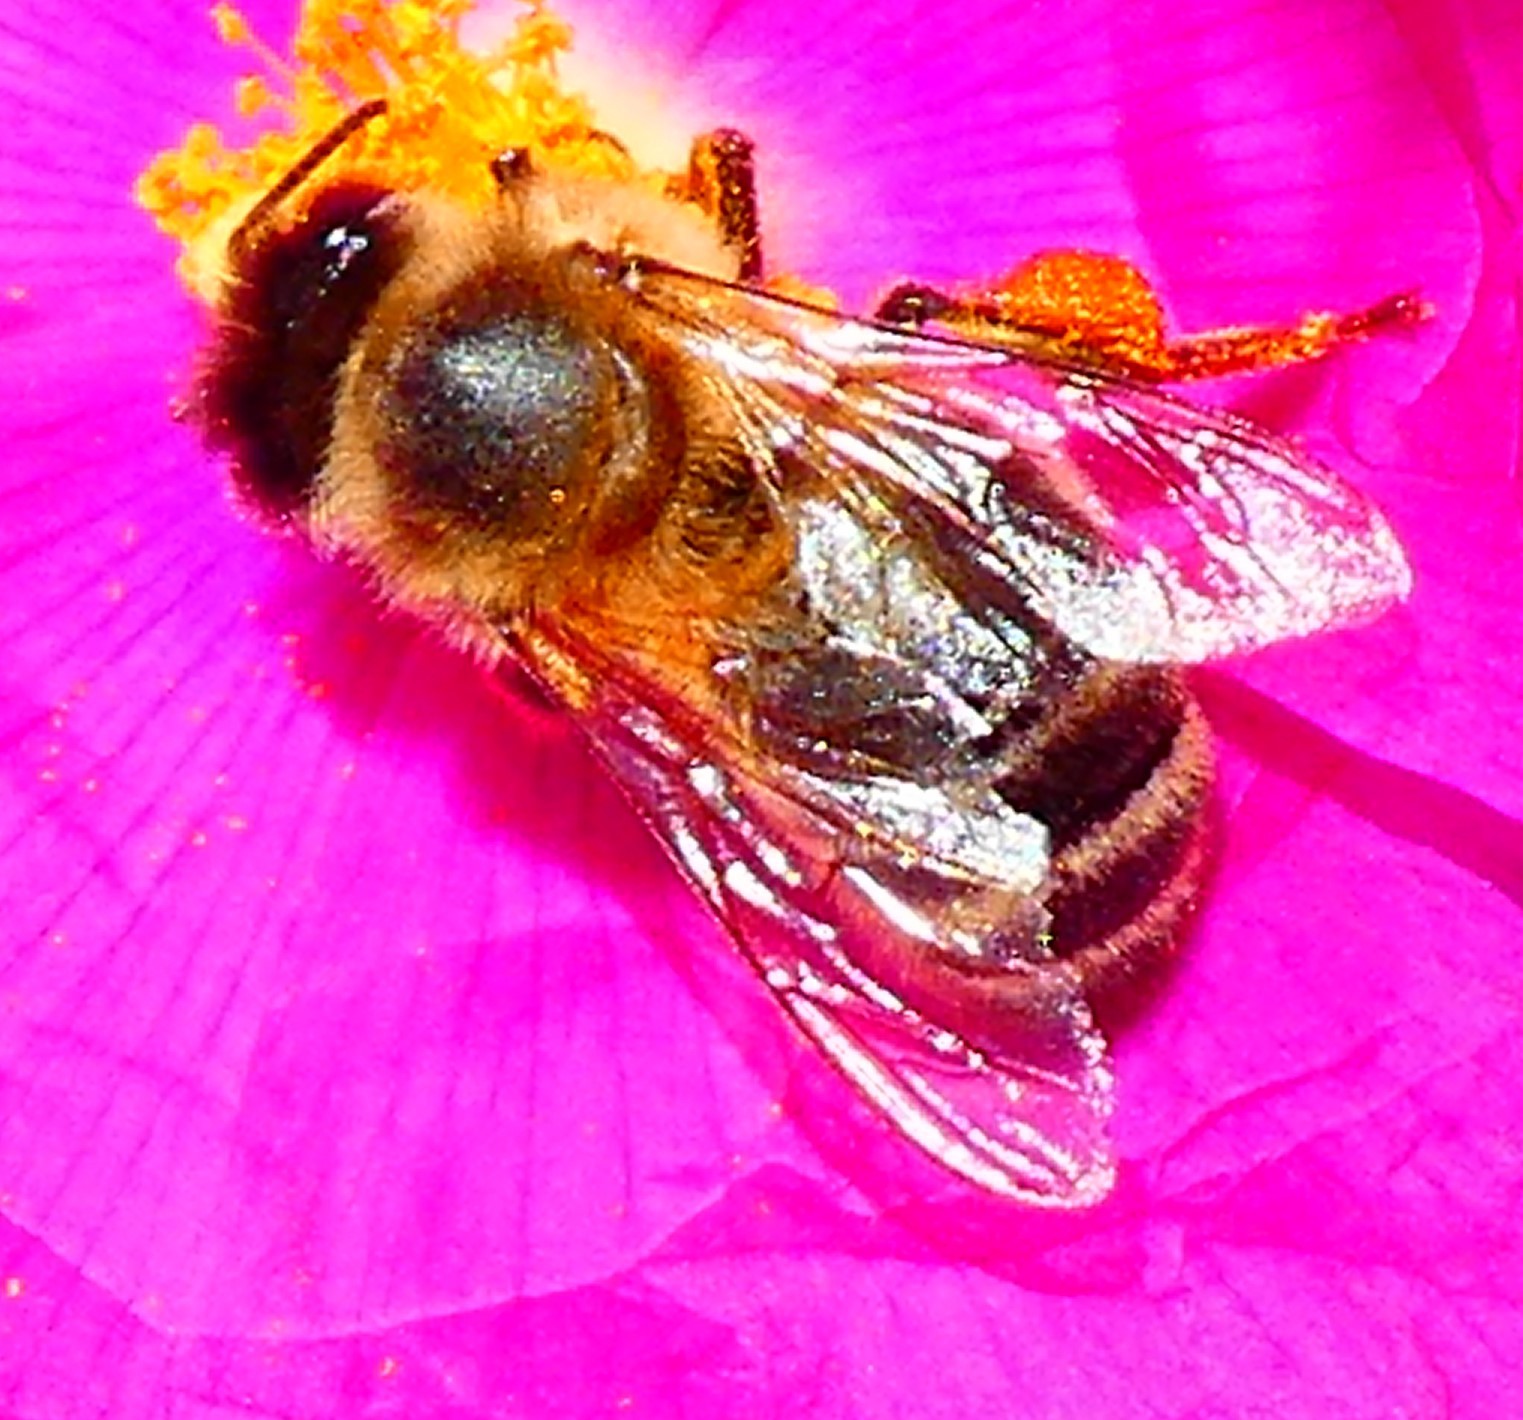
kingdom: Animalia
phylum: Arthropoda
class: Insecta
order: Hymenoptera
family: Apidae
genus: Apis
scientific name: Apis mellifera
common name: Honey bee
